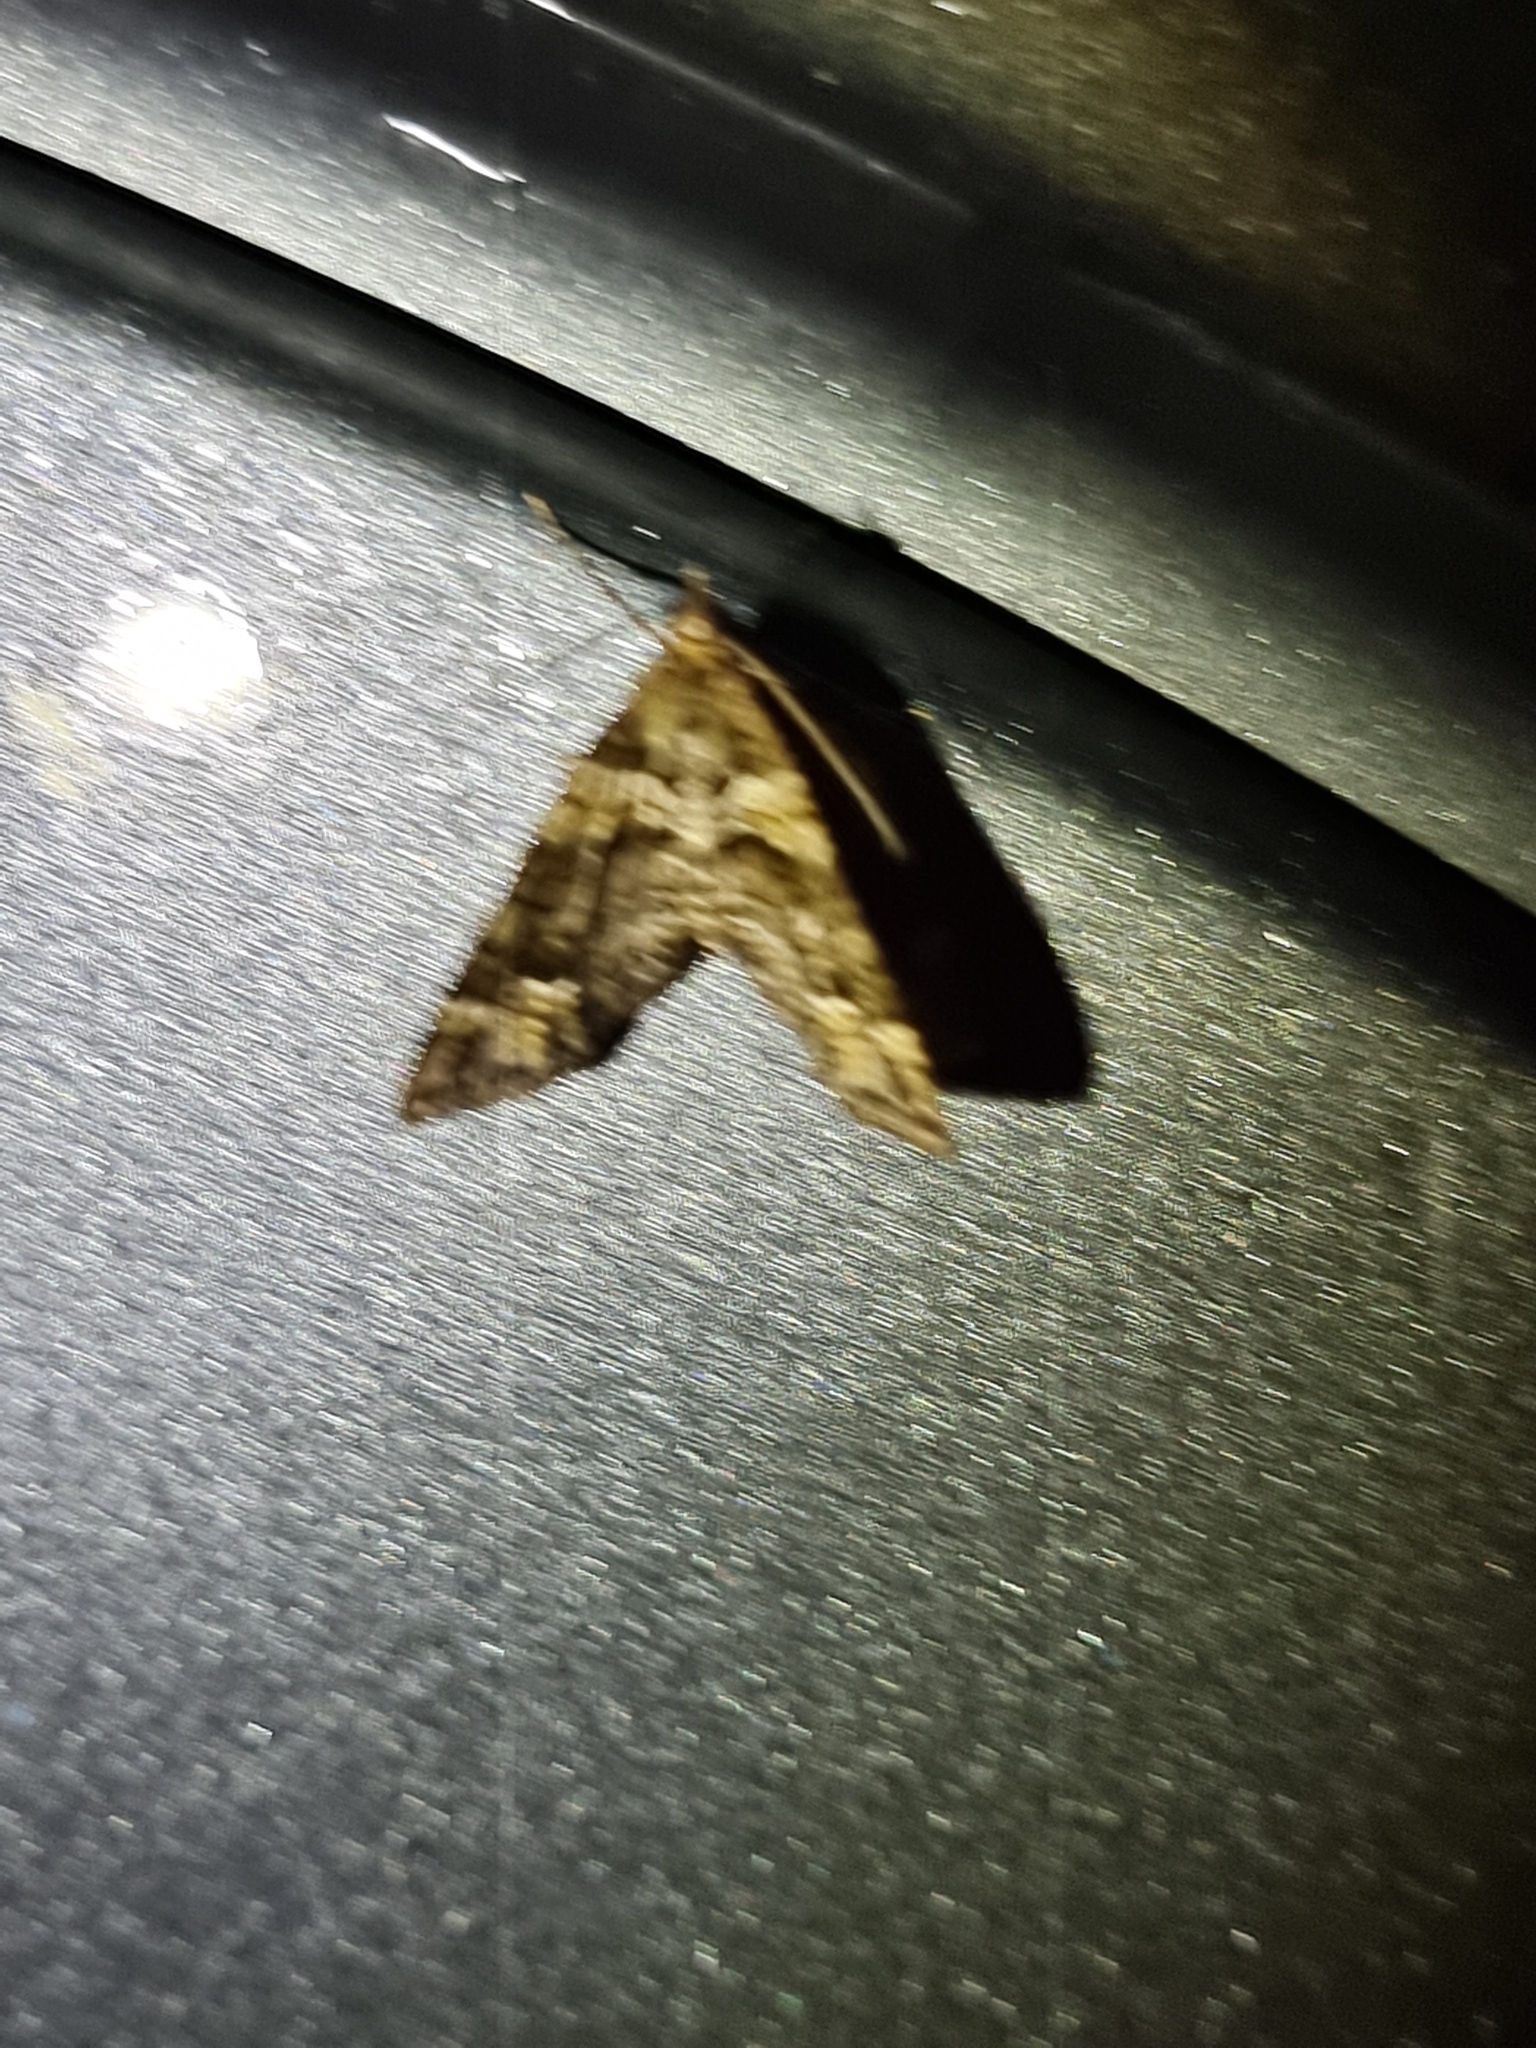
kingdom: Animalia
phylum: Arthropoda
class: Insecta
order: Lepidoptera
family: Geometridae
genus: Crasilogia
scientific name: Crasilogia gressitti
